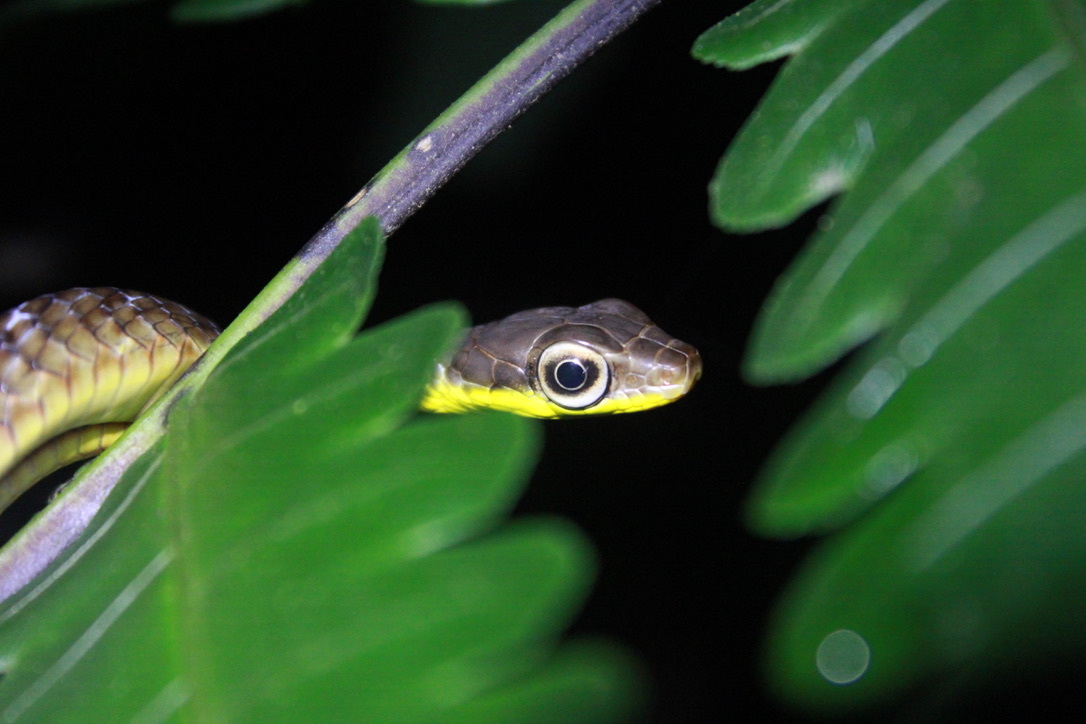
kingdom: Animalia
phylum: Chordata
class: Squamata
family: Colubridae
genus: Chironius
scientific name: Chironius septentrionalis
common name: South american sipo
